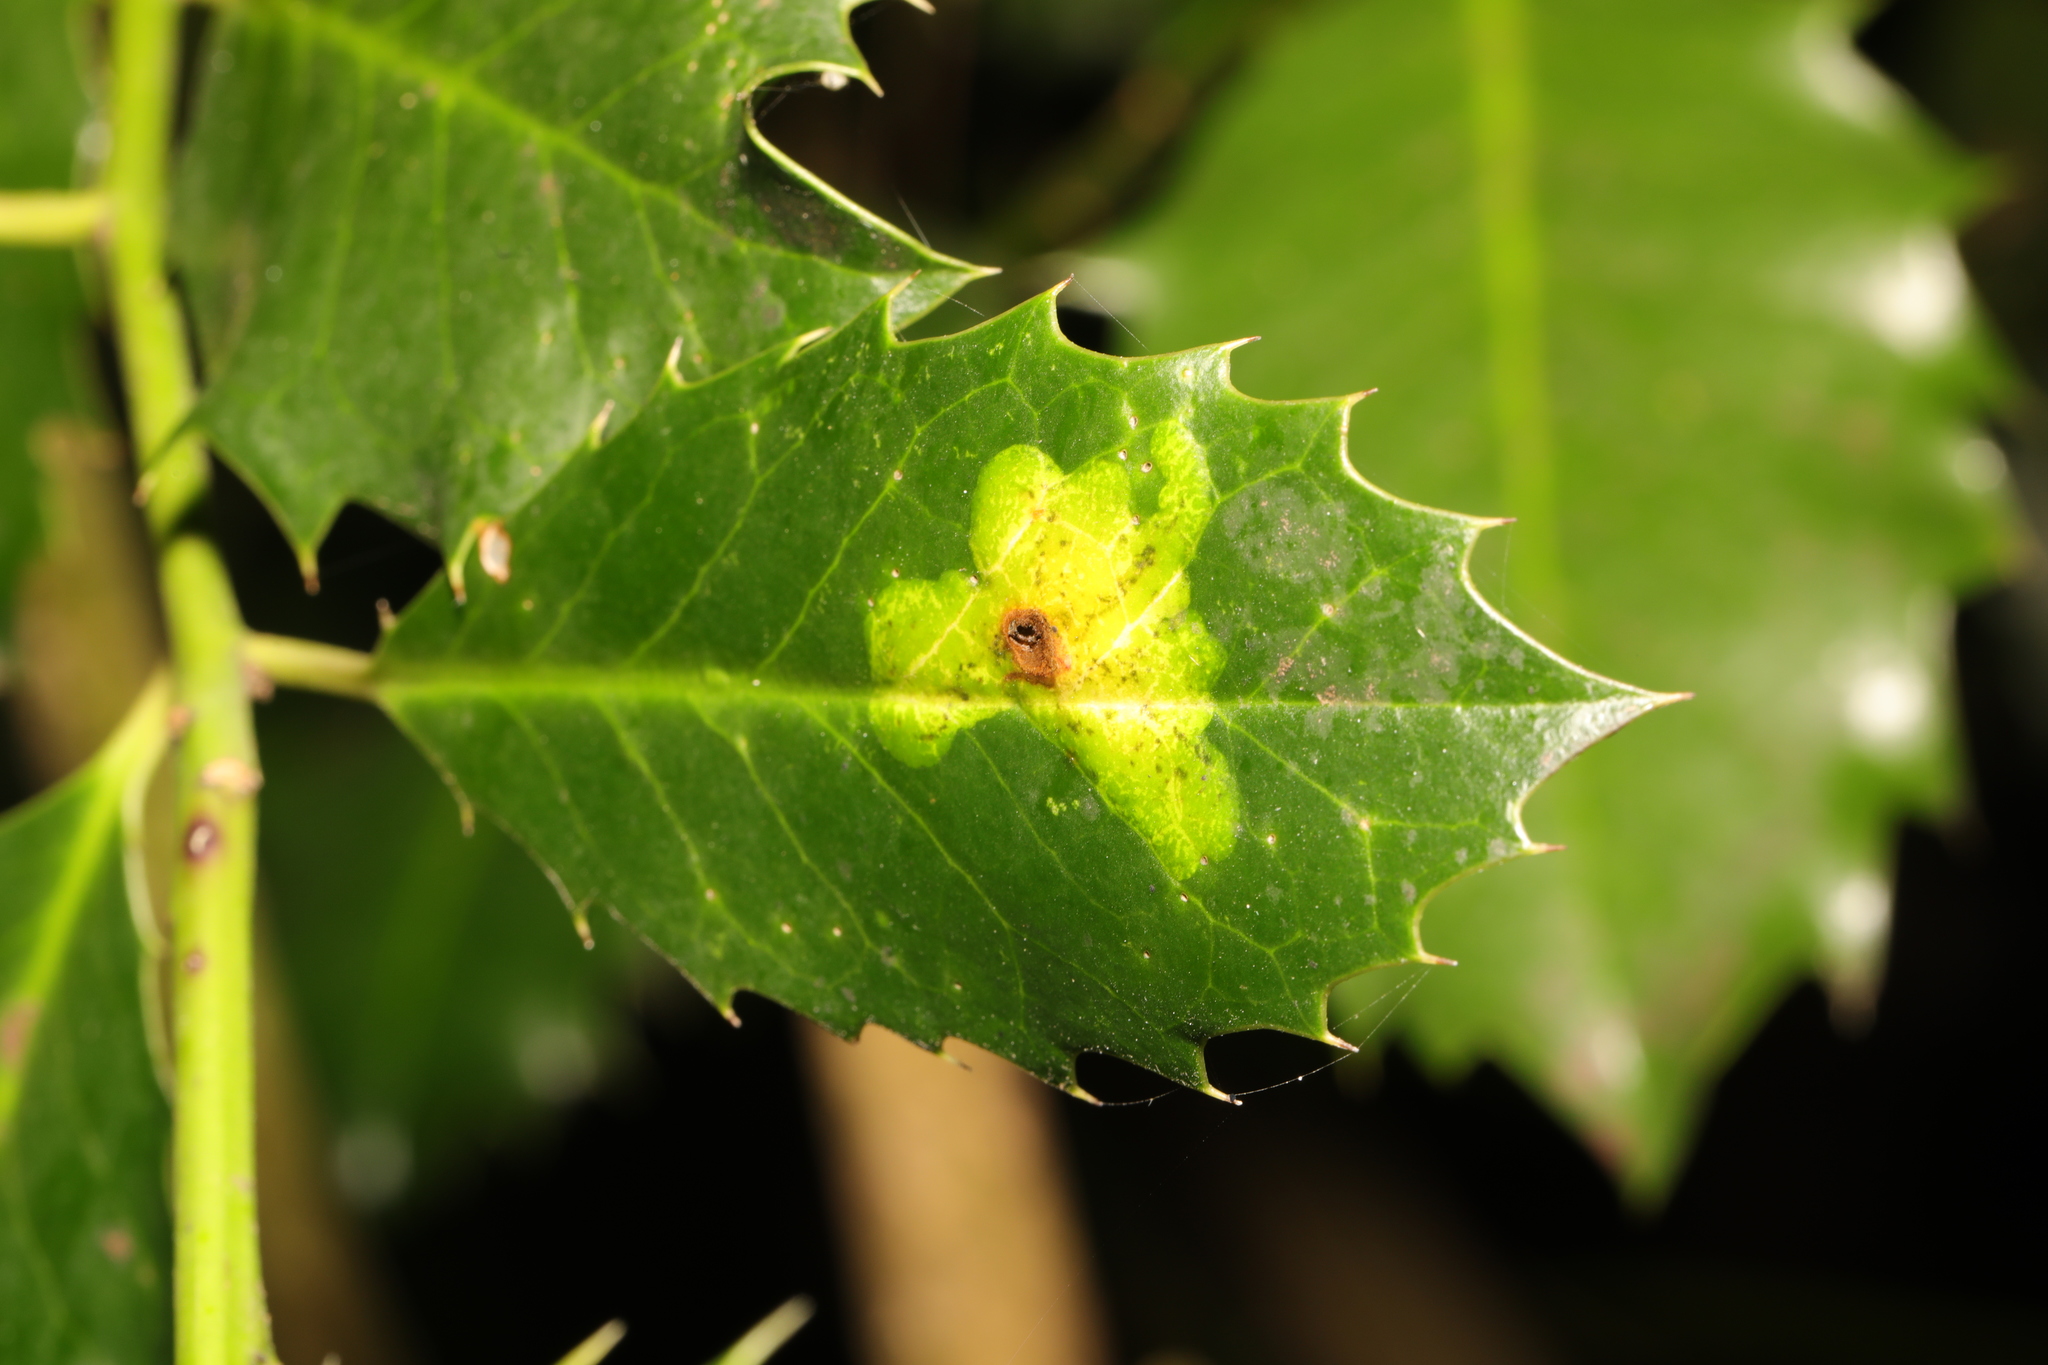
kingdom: Animalia
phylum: Arthropoda
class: Insecta
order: Diptera
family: Agromyzidae
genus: Phytomyza
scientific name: Phytomyza ilicis
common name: Holly leafminer
